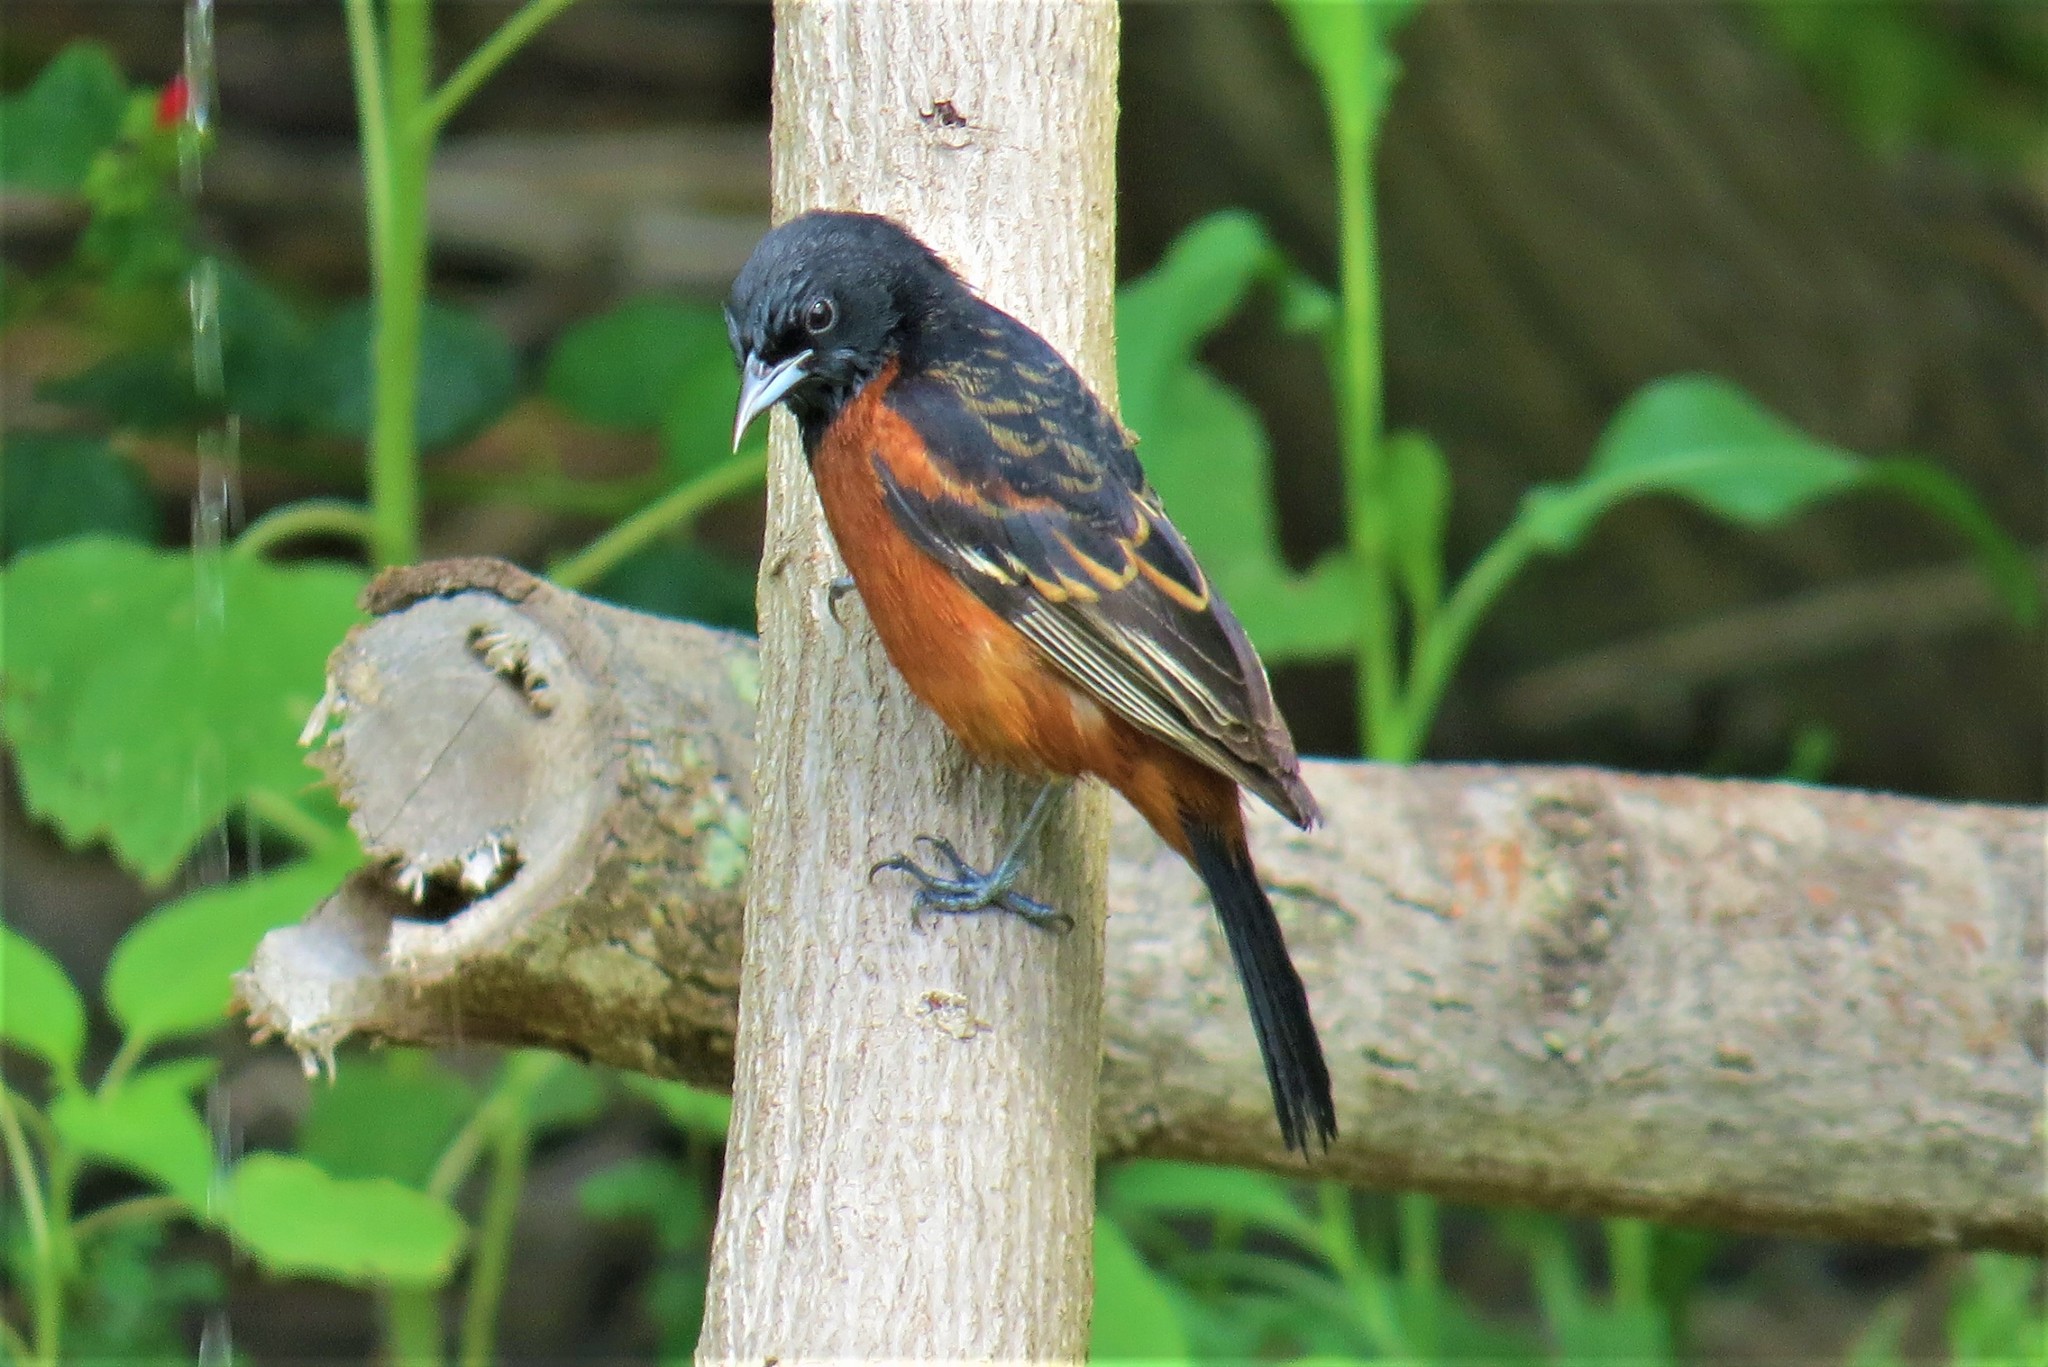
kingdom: Animalia
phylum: Chordata
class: Aves
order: Passeriformes
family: Icteridae
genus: Icterus
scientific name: Icterus spurius
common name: Orchard oriole
